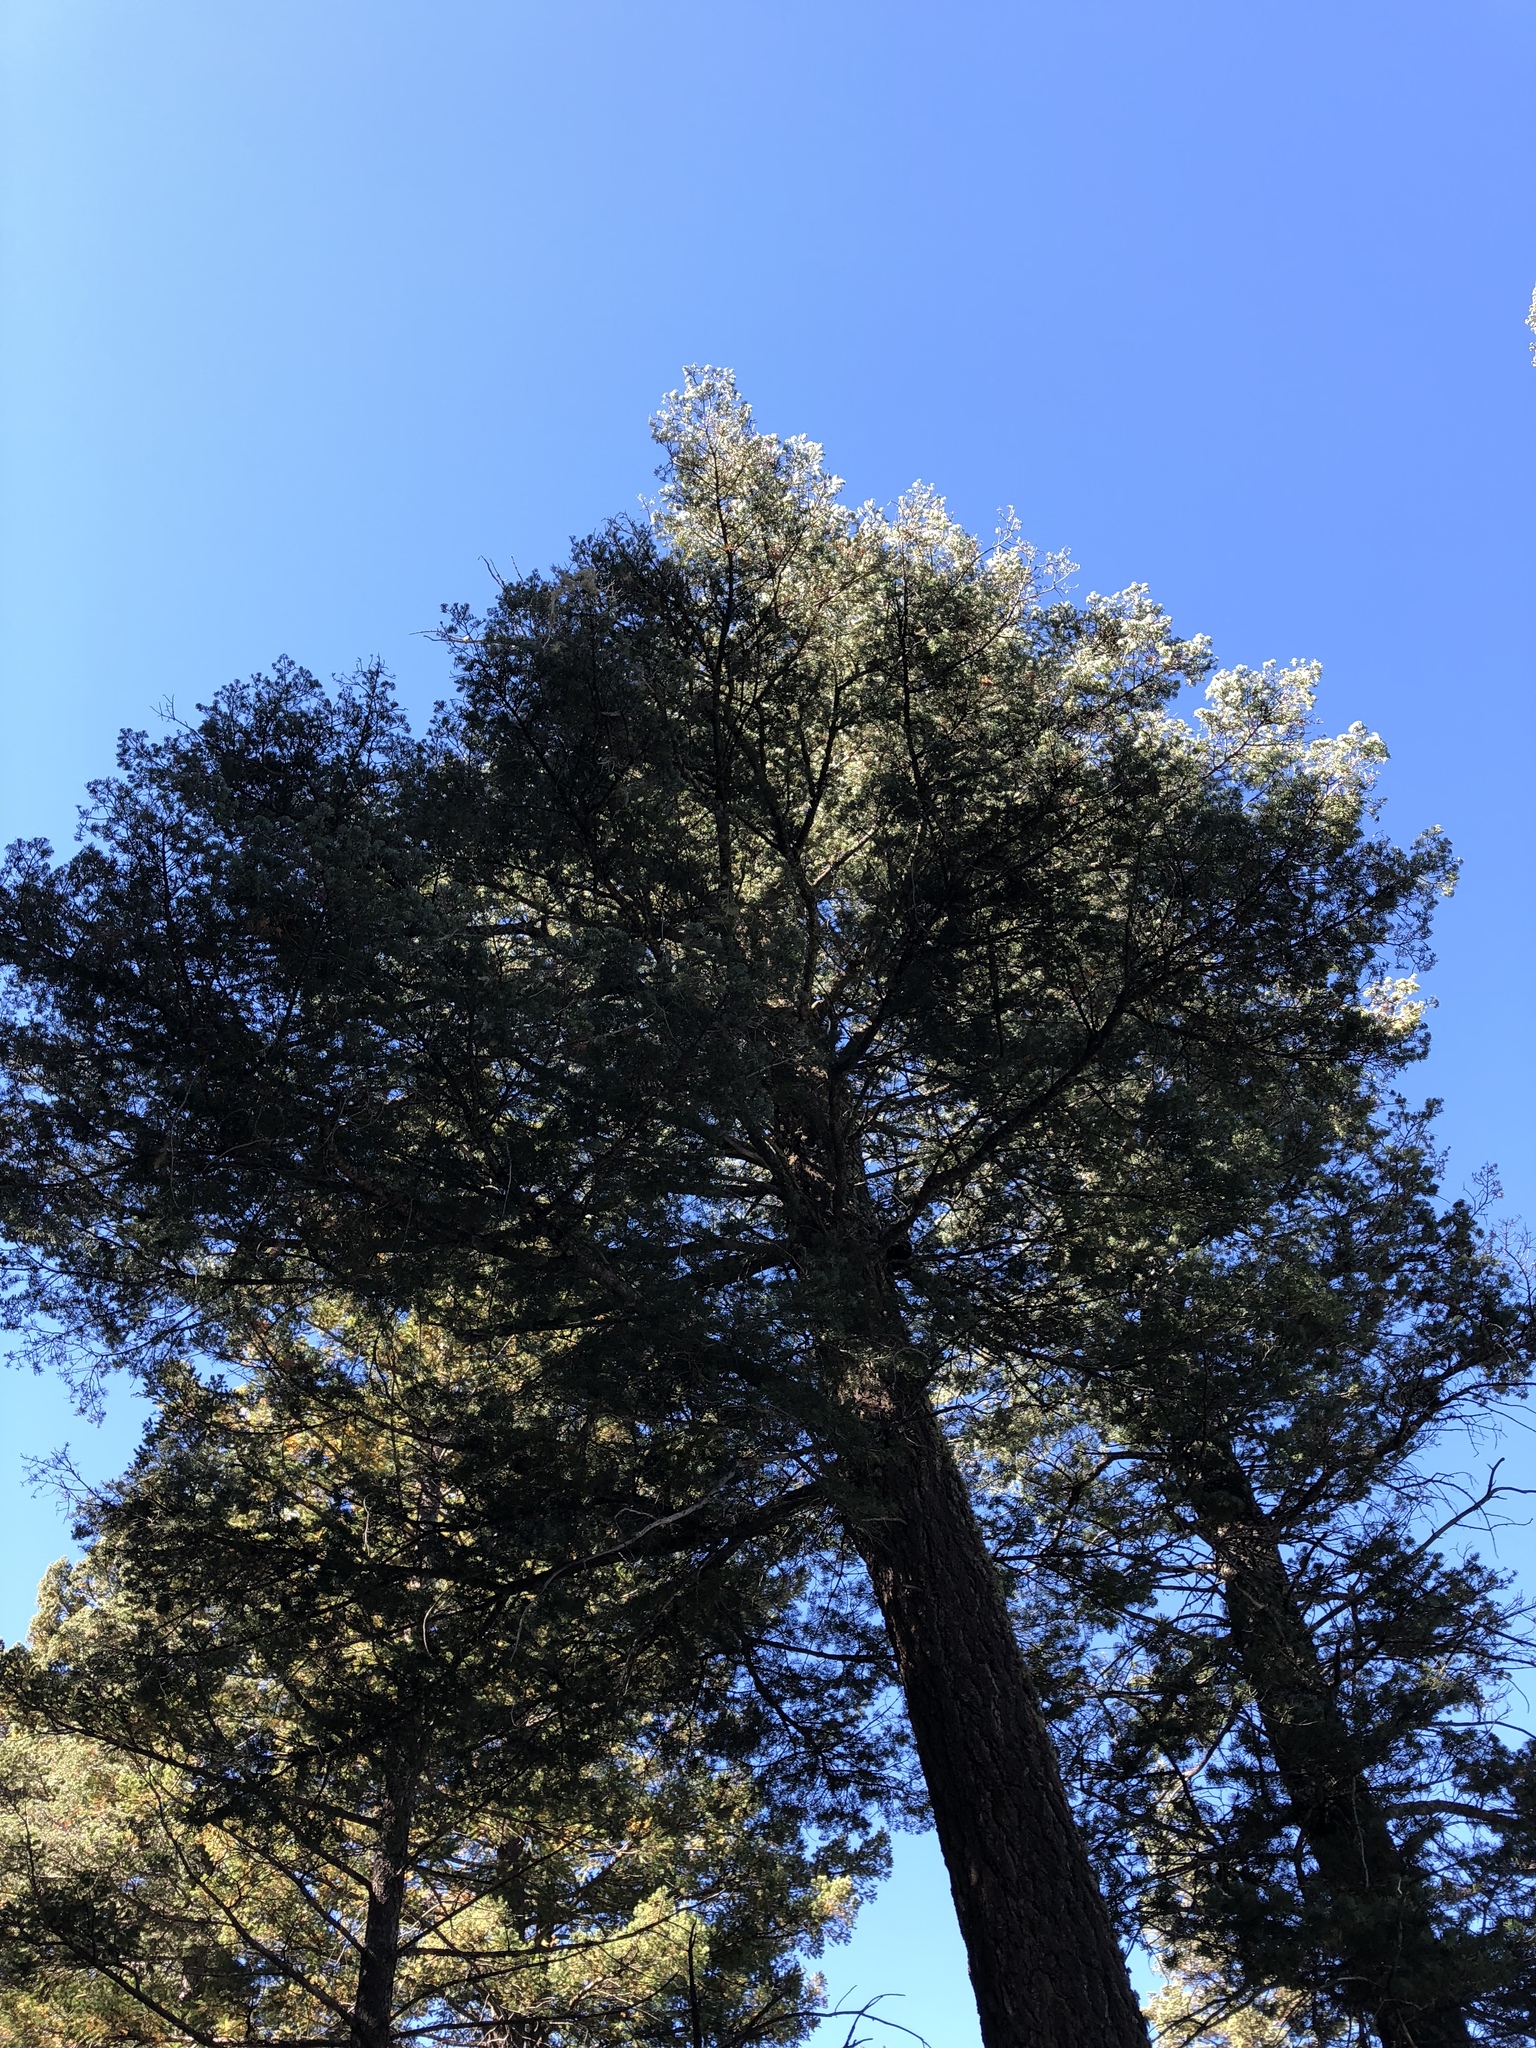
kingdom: Plantae
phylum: Tracheophyta
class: Pinopsida
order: Pinales
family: Pinaceae
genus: Pseudotsuga
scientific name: Pseudotsuga menziesii
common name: Douglas fir
